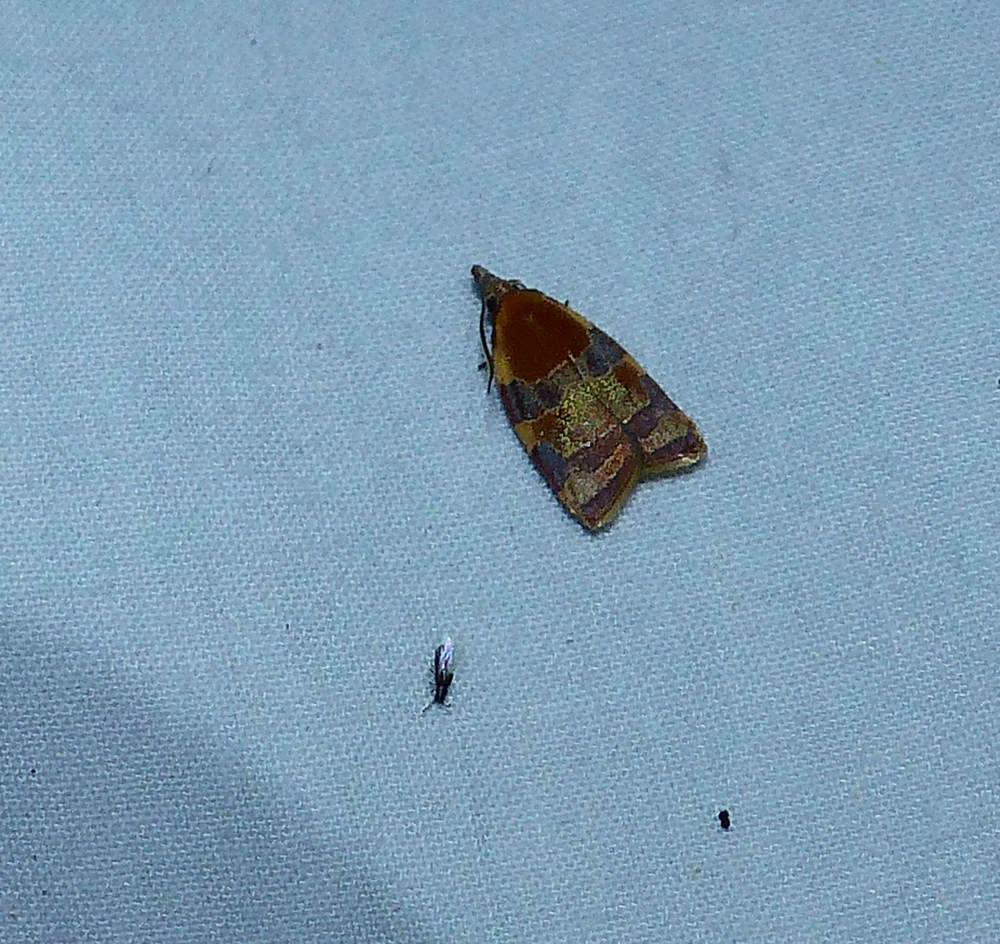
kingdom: Animalia
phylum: Arthropoda
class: Insecta
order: Lepidoptera
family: Tortricidae
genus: Cenopis
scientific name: Cenopis diluticostana
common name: Spring dead-leaf roller moth
